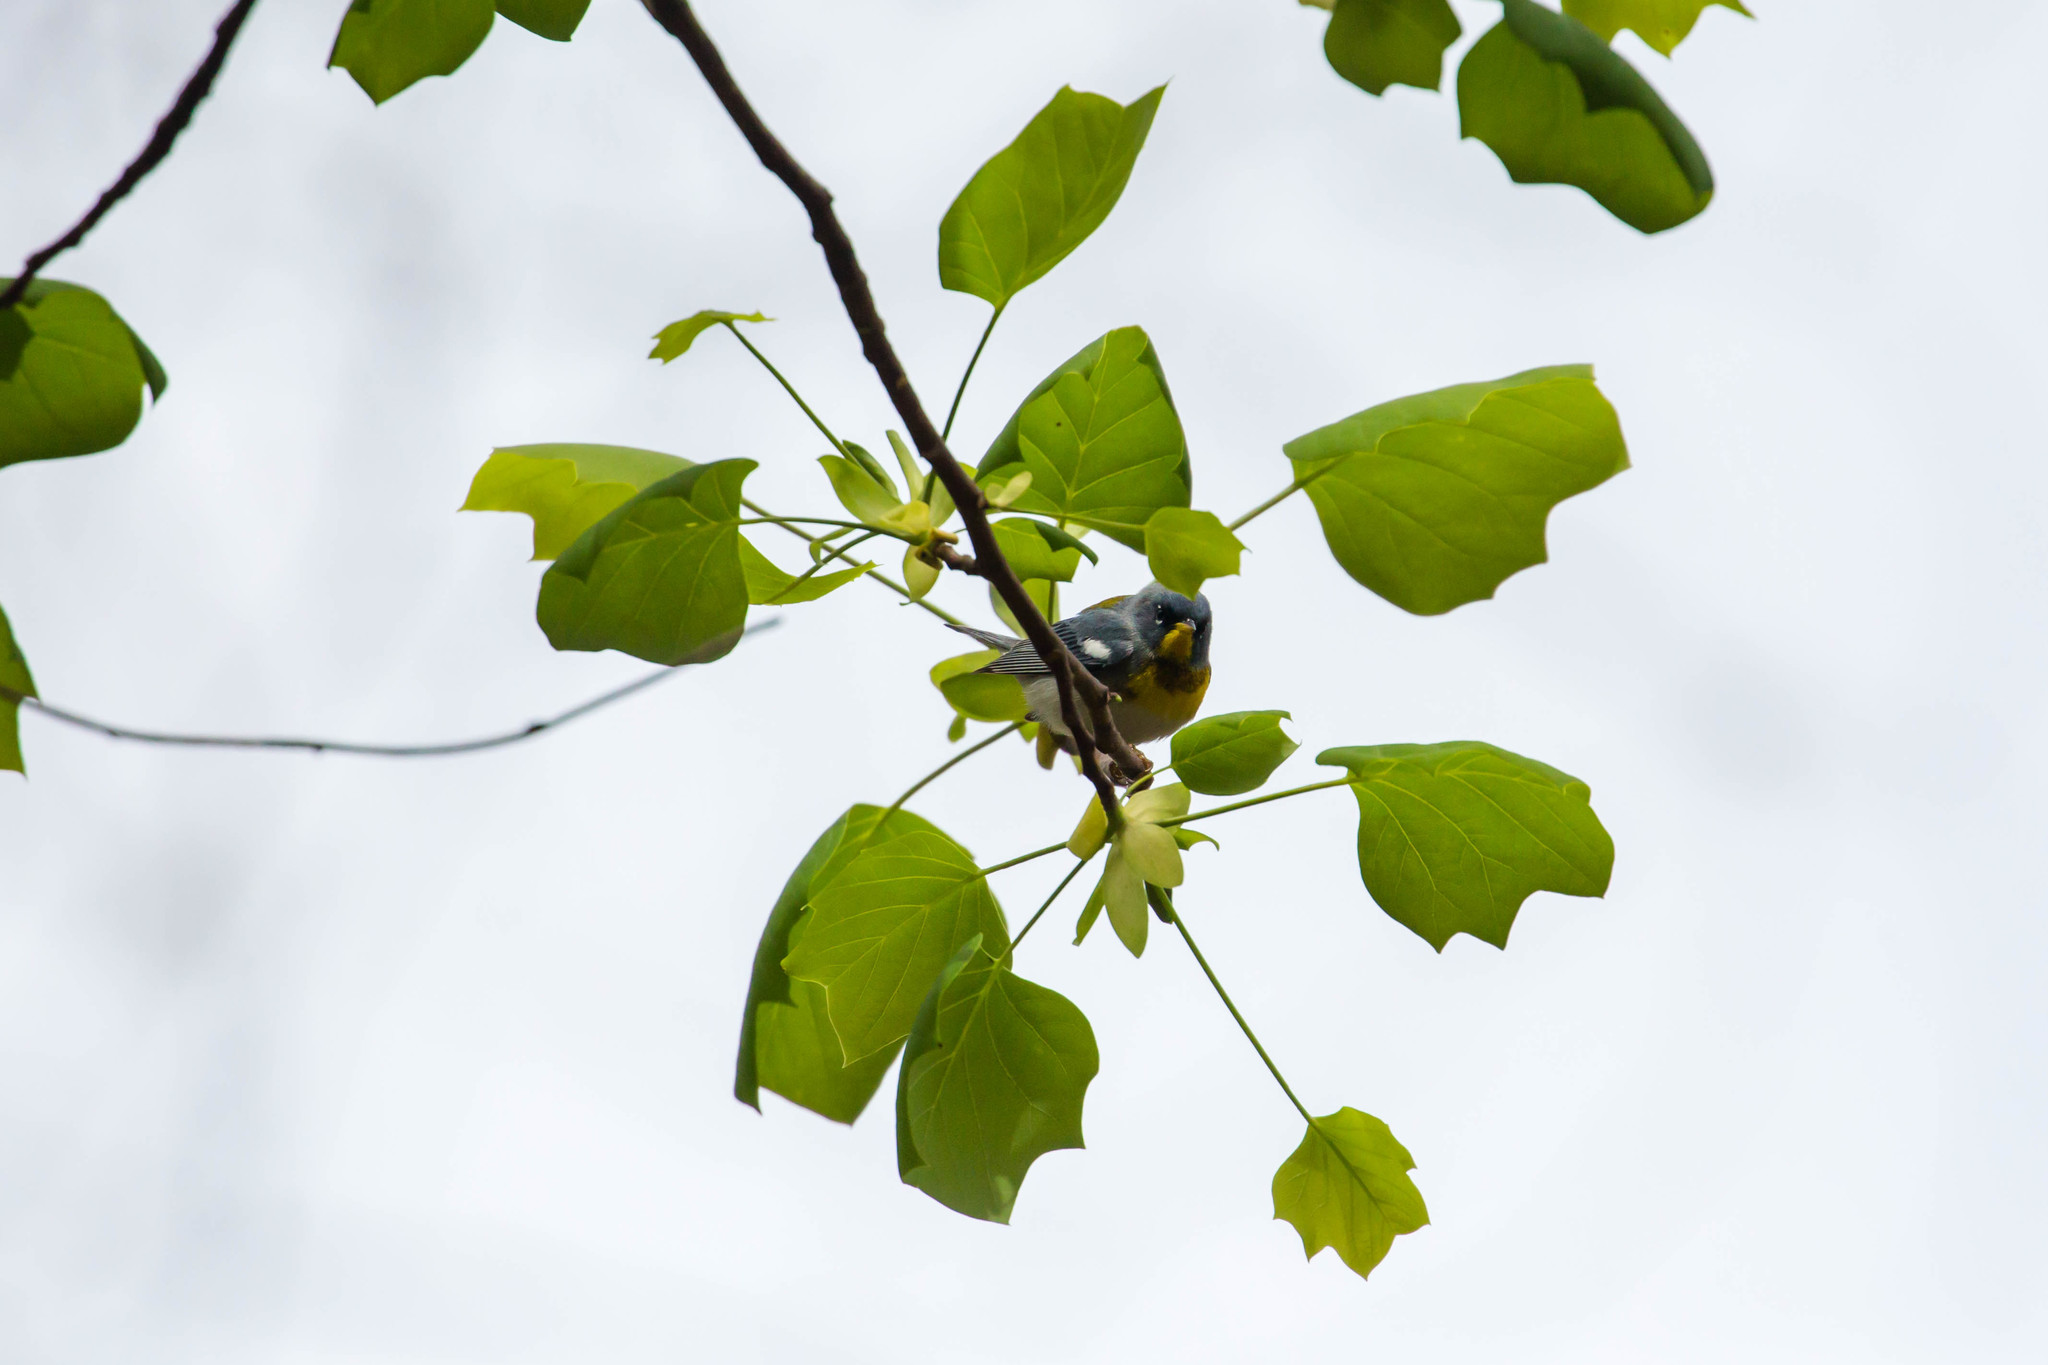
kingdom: Animalia
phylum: Chordata
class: Aves
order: Passeriformes
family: Parulidae
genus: Setophaga
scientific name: Setophaga americana
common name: Northern parula
